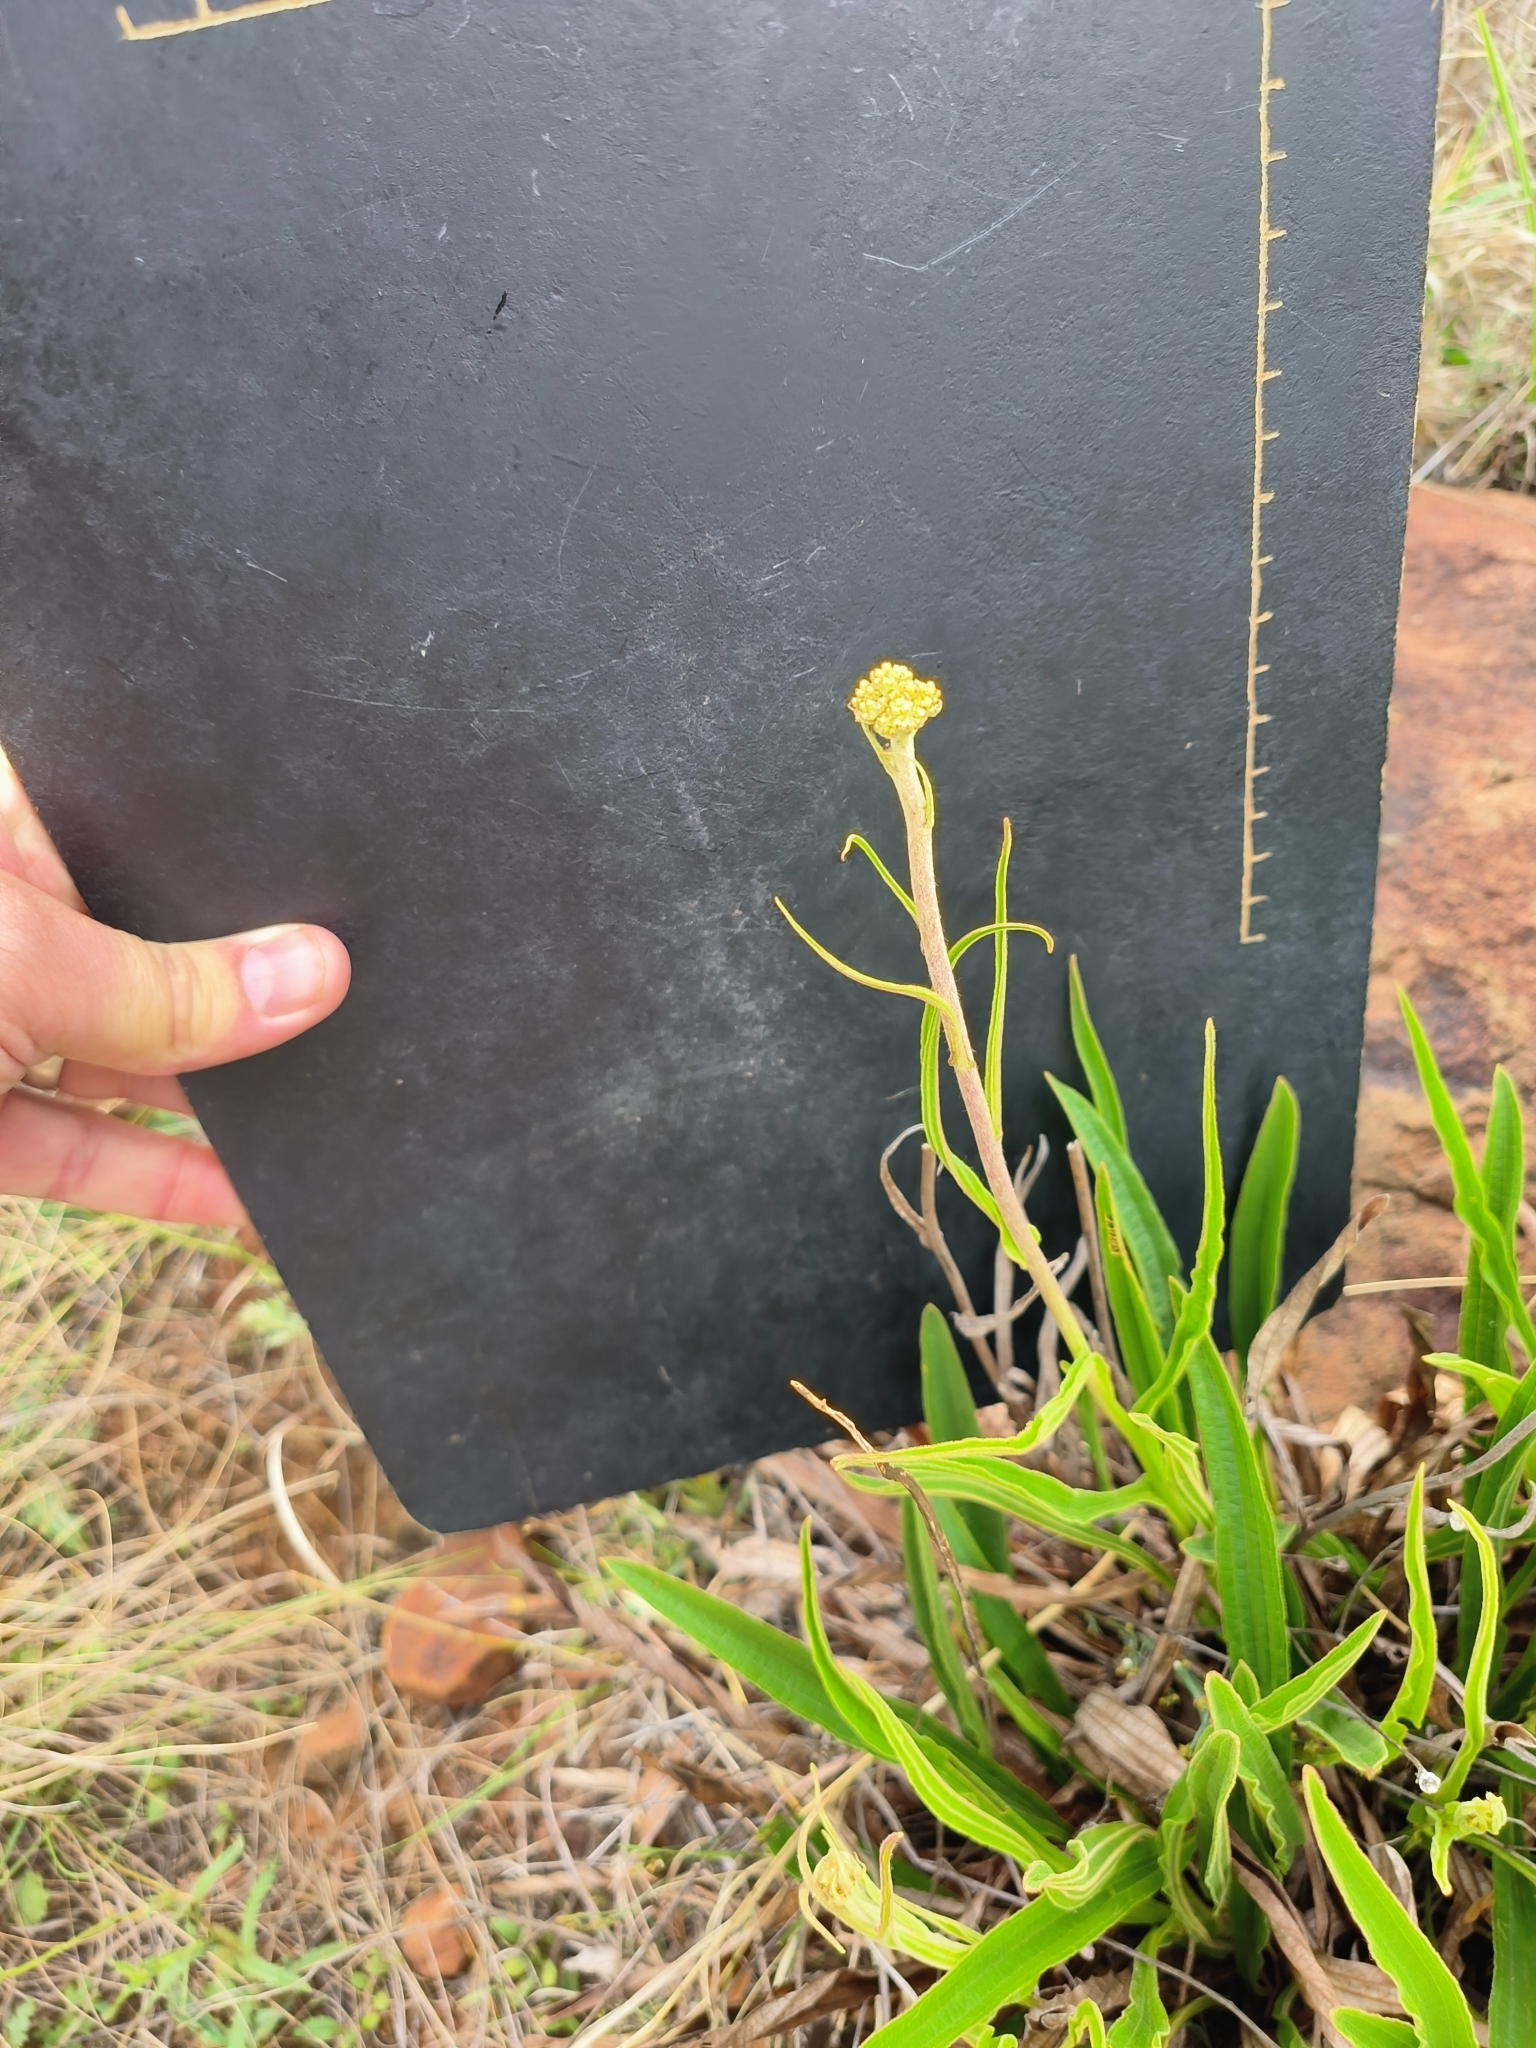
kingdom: Plantae
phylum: Tracheophyta
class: Magnoliopsida
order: Asterales
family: Asteraceae
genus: Helichrysum
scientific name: Helichrysum nudifolium
